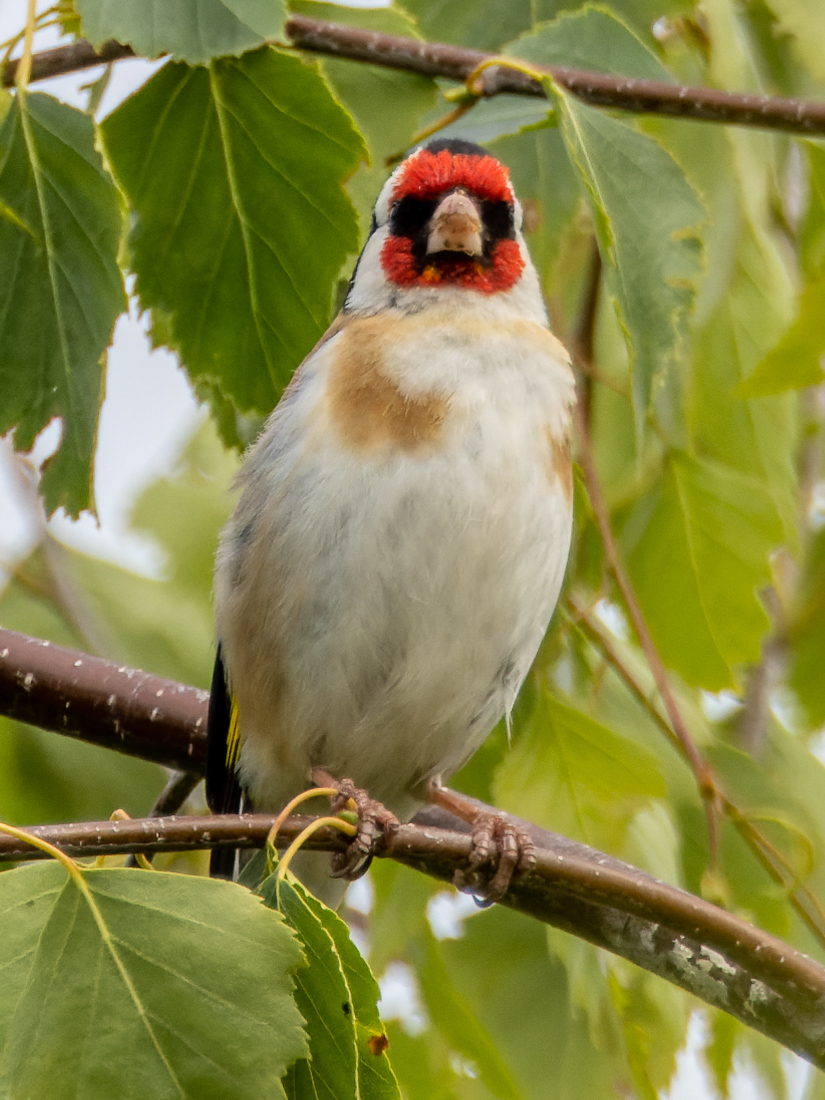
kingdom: Animalia
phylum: Chordata
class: Aves
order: Passeriformes
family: Fringillidae
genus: Carduelis
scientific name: Carduelis carduelis
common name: European goldfinch
